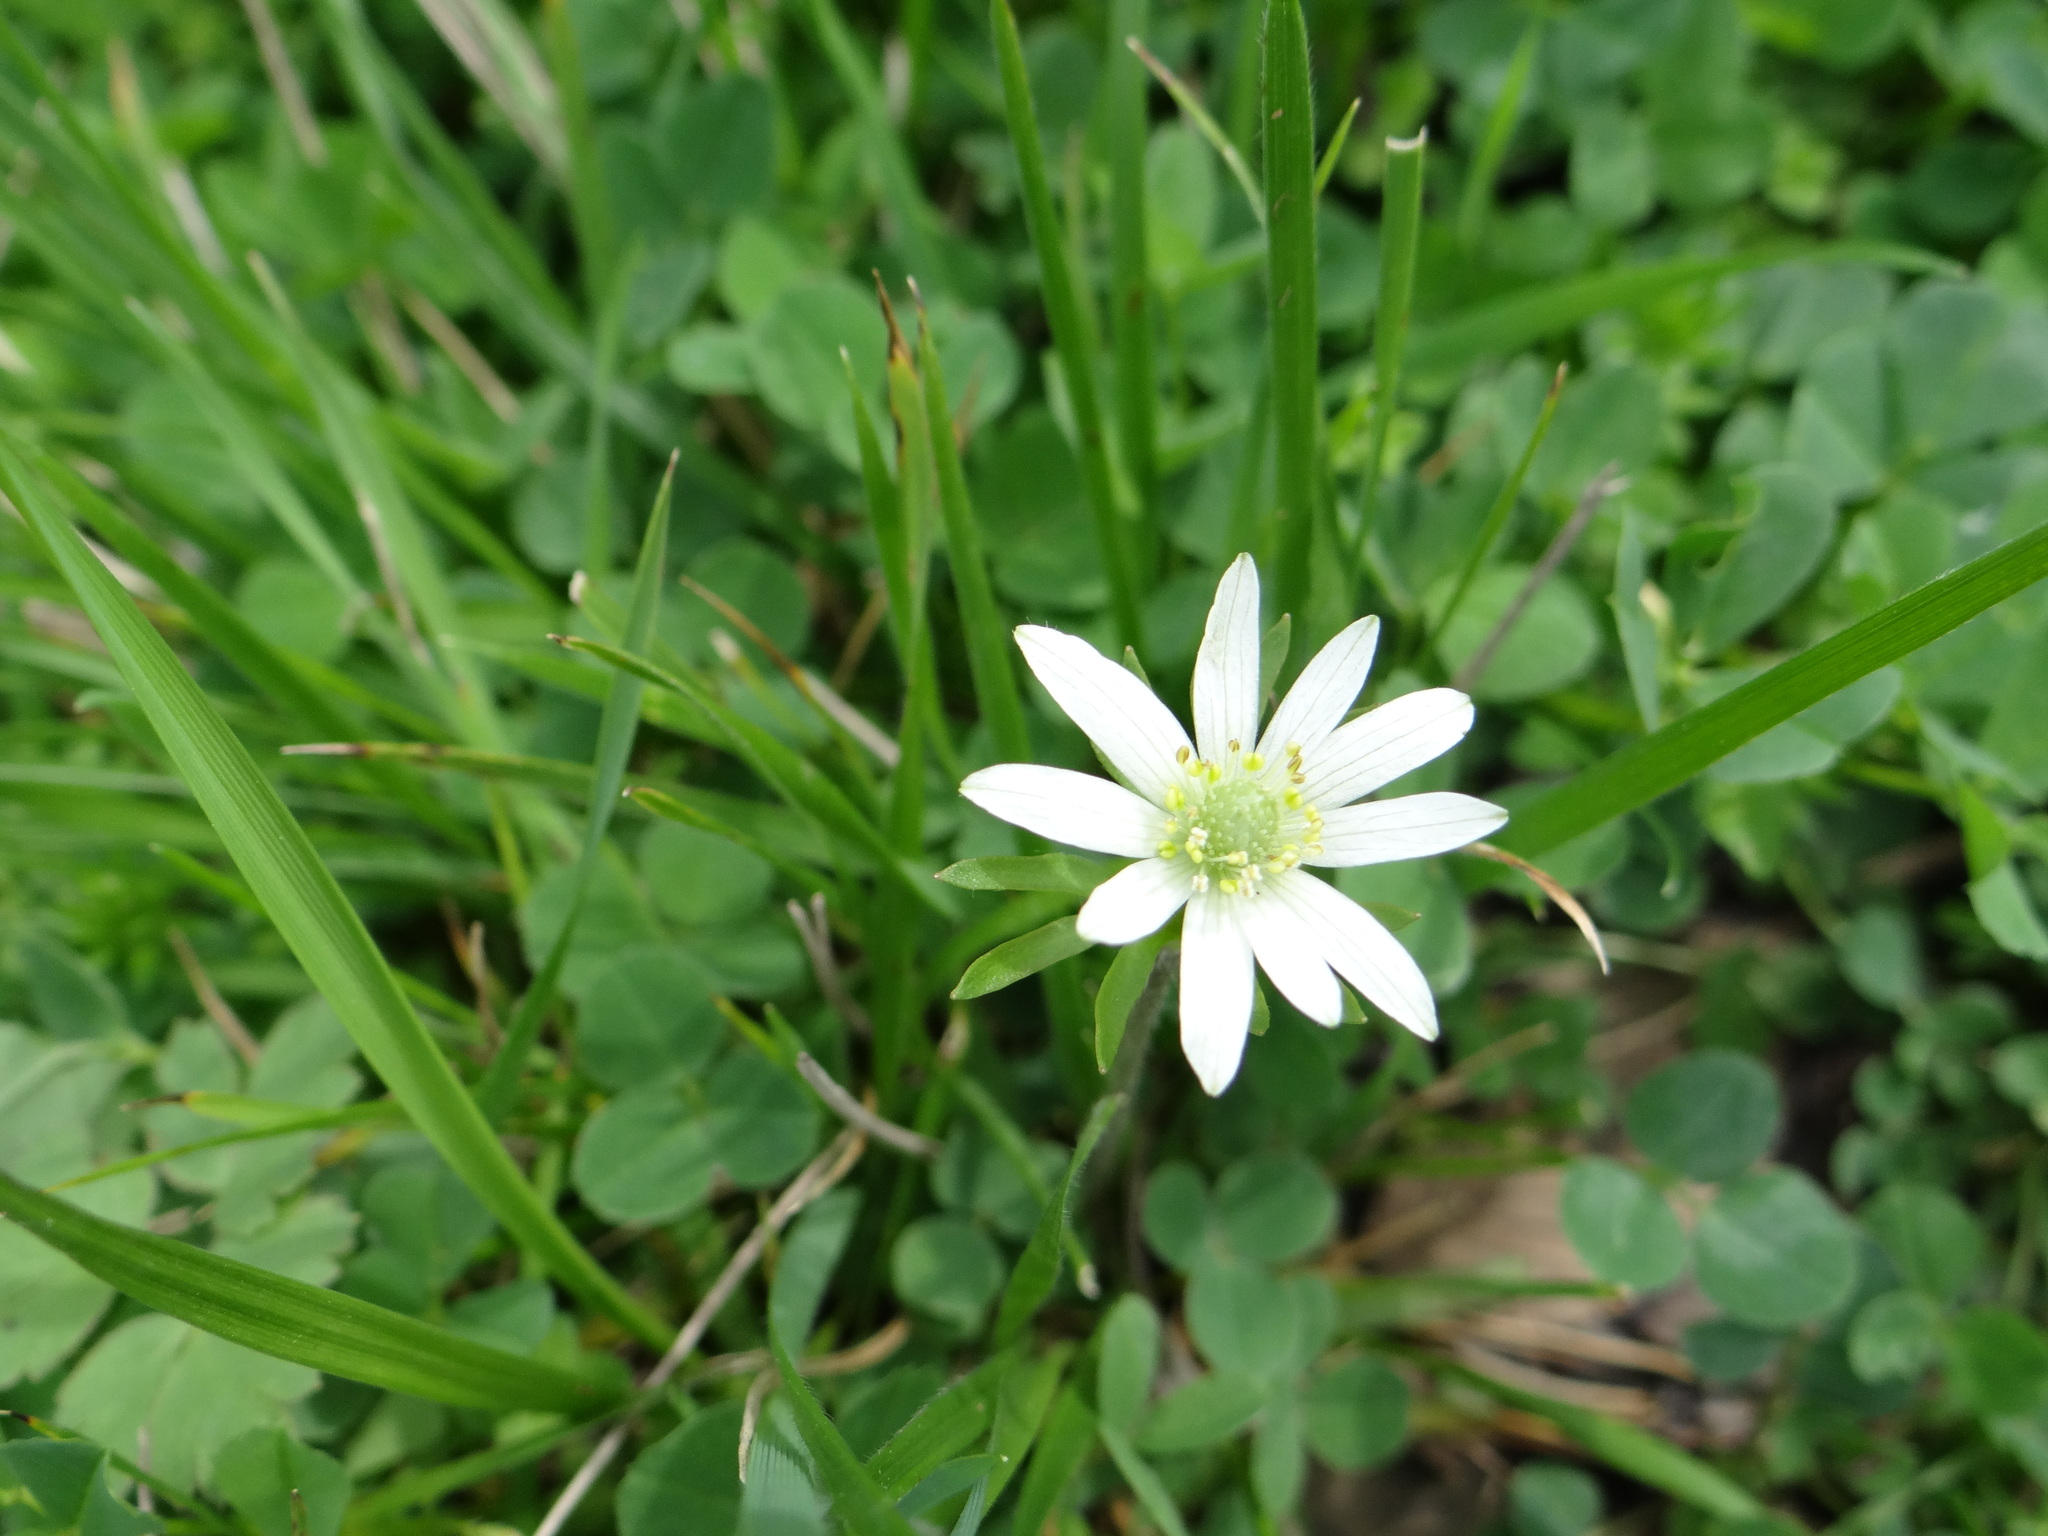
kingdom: Plantae
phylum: Tracheophyta
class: Magnoliopsida
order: Ranunculales
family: Ranunculaceae
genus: Anemone
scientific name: Anemone berlandieri
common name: Ten-petal anemone
